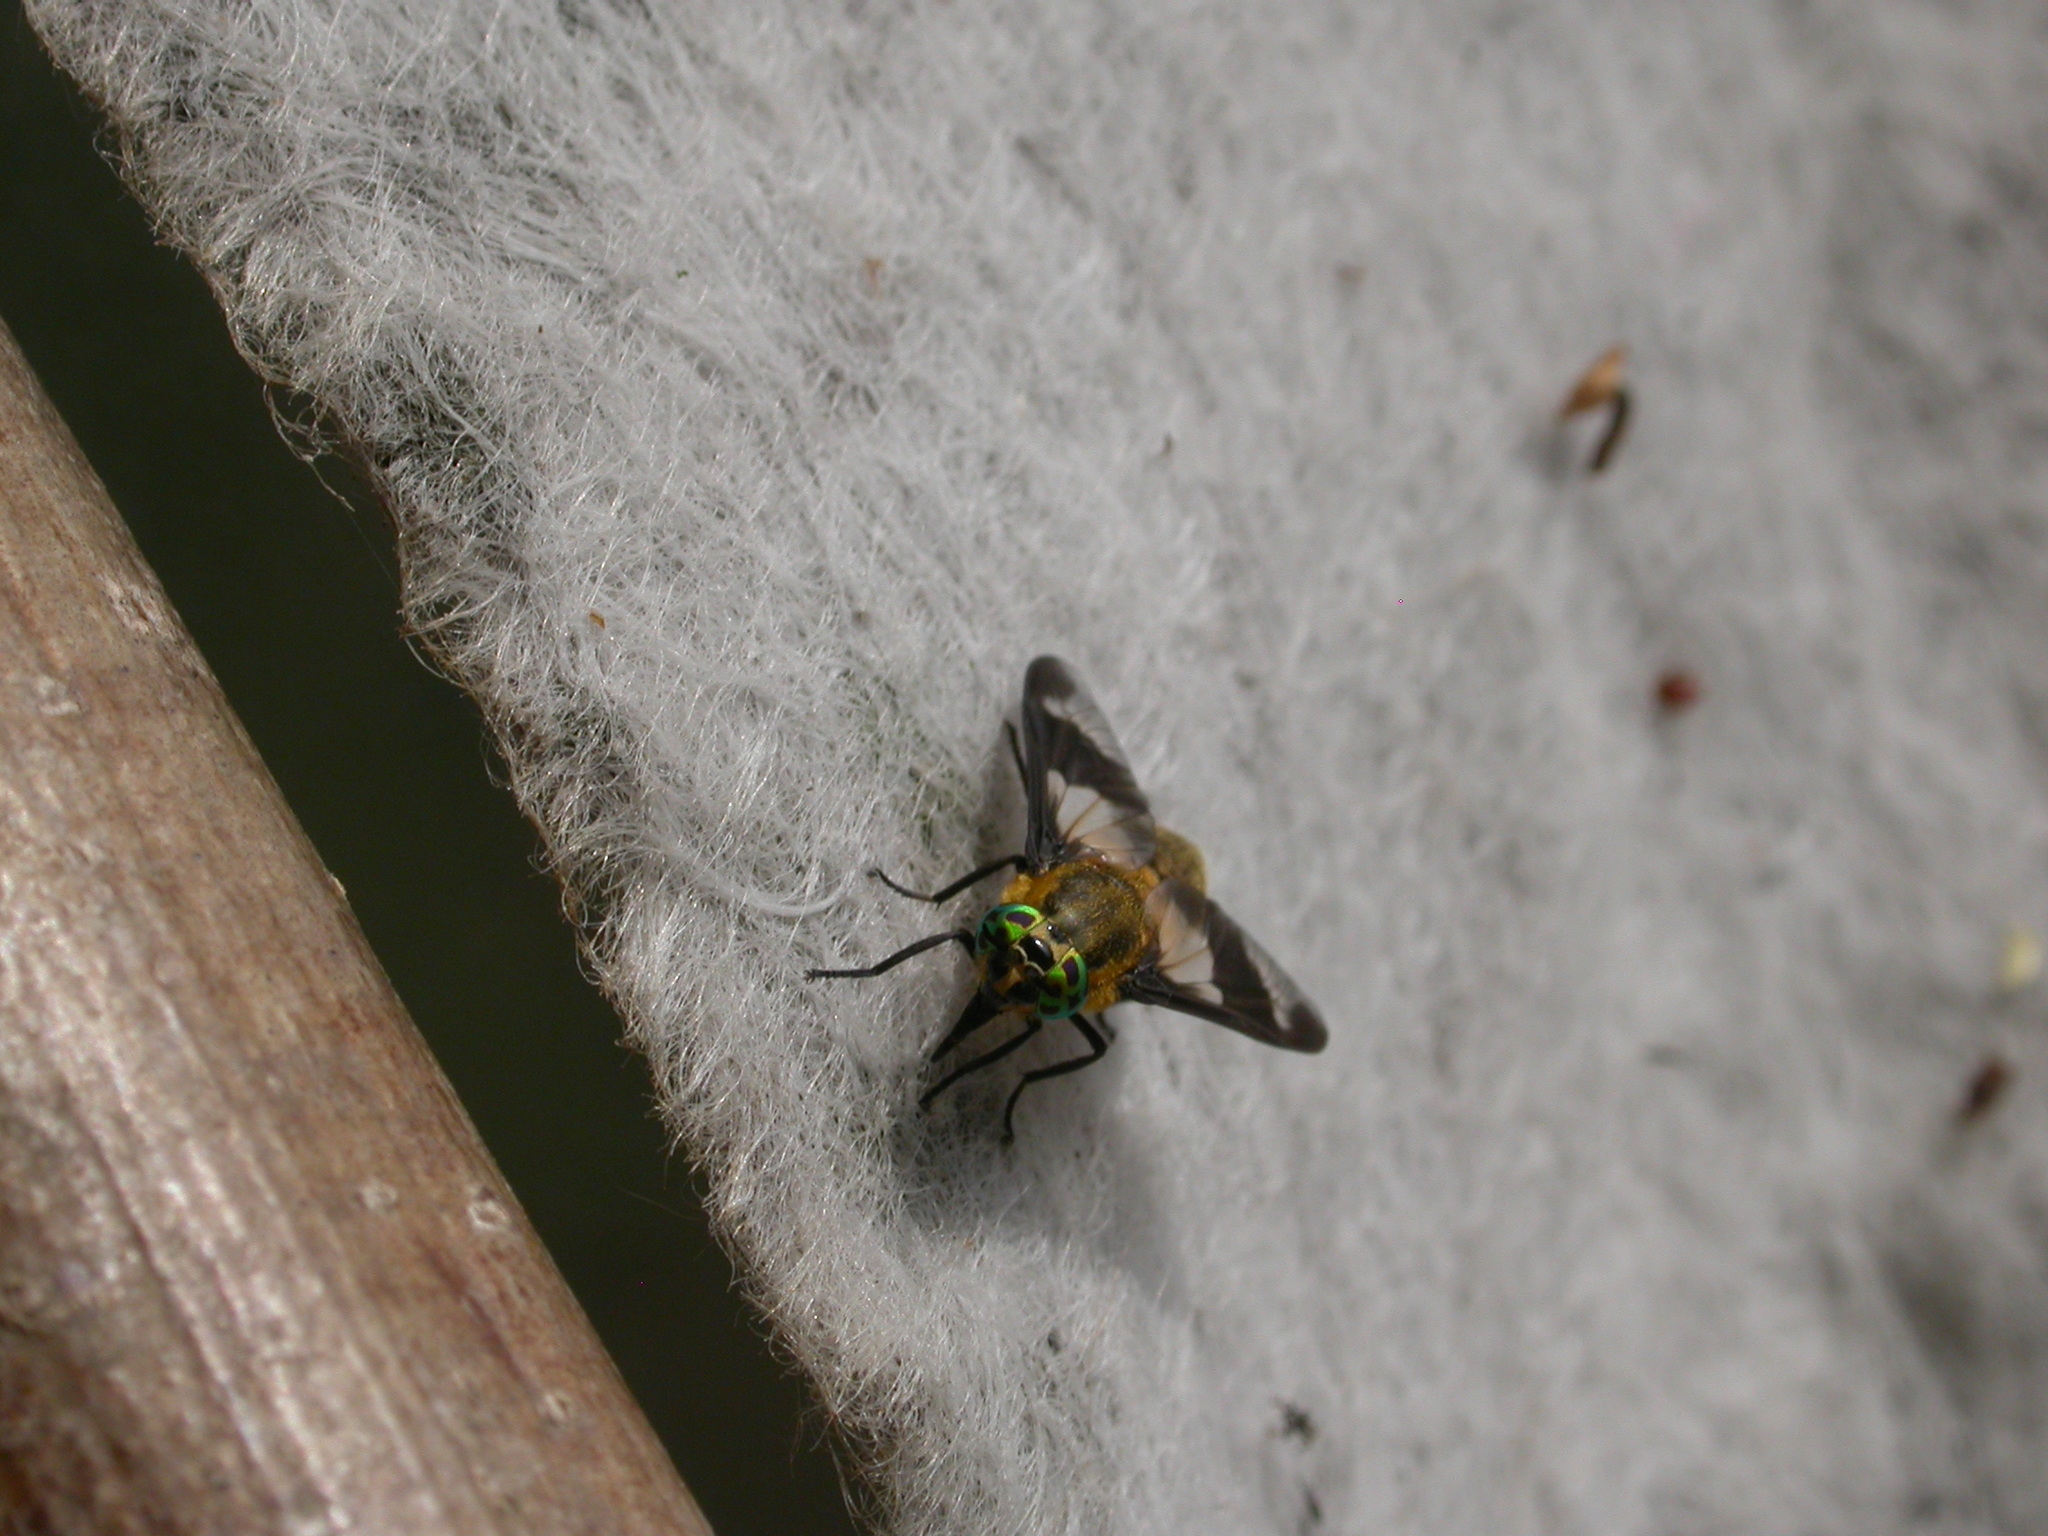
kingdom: Animalia
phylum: Arthropoda
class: Insecta
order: Diptera
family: Tabanidae
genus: Chrysops
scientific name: Chrysops relictus
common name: Twin-lobed deerfly
